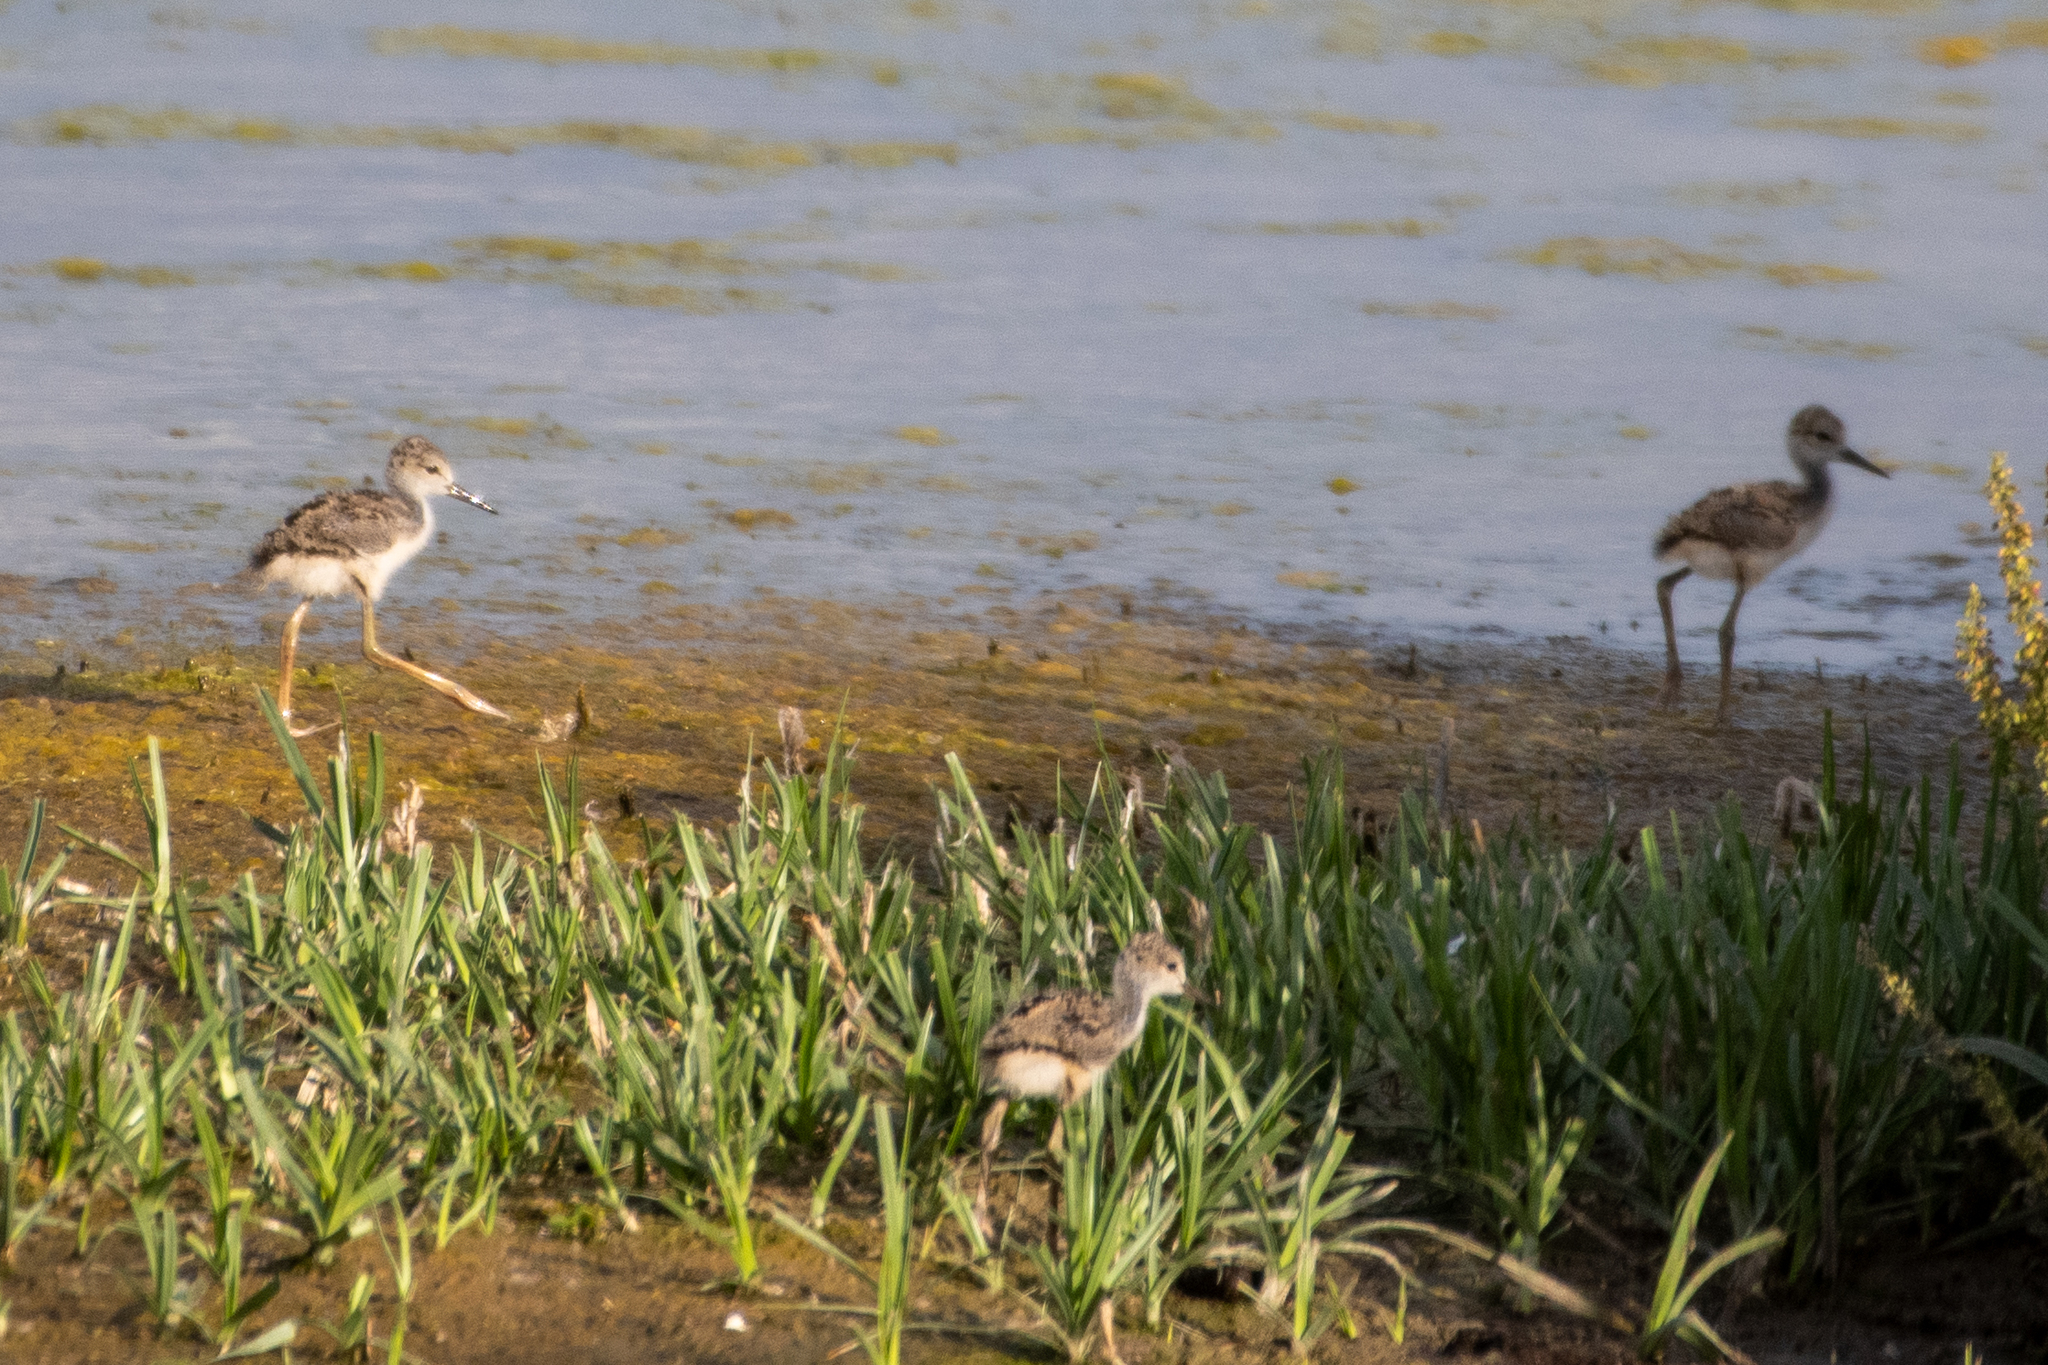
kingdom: Animalia
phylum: Chordata
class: Aves
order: Charadriiformes
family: Recurvirostridae
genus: Himantopus
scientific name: Himantopus mexicanus
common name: Black-necked stilt
